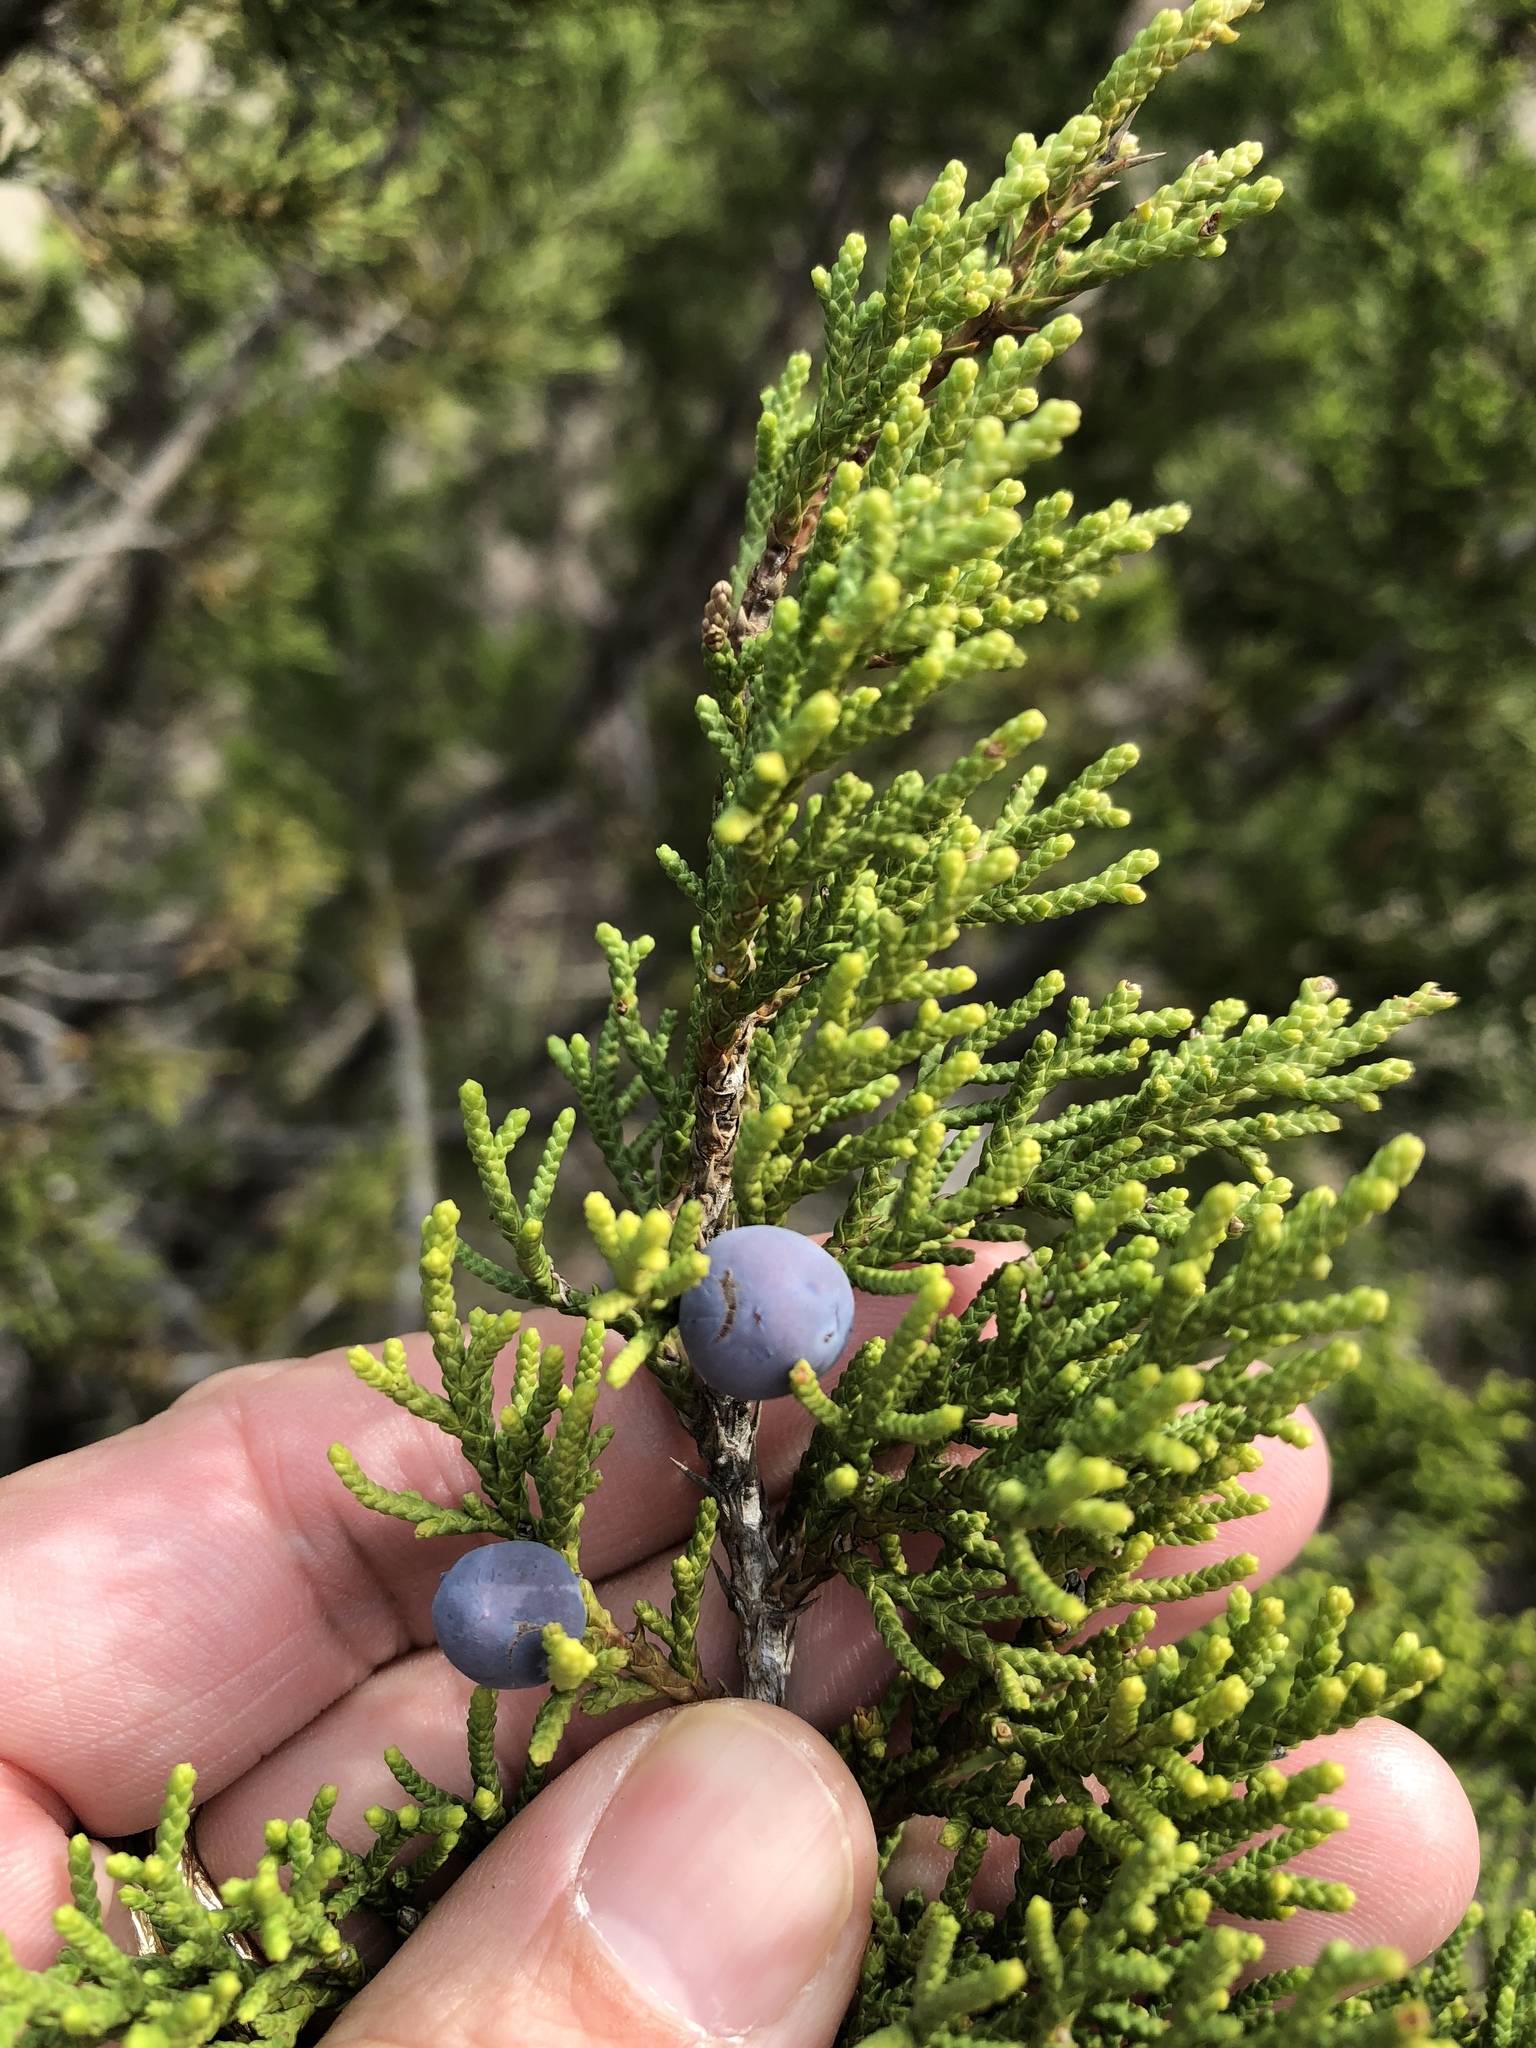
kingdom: Plantae
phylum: Tracheophyta
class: Pinopsida
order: Pinales
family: Cupressaceae
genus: Juniperus
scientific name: Juniperus ashei
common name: Mexican juniper
